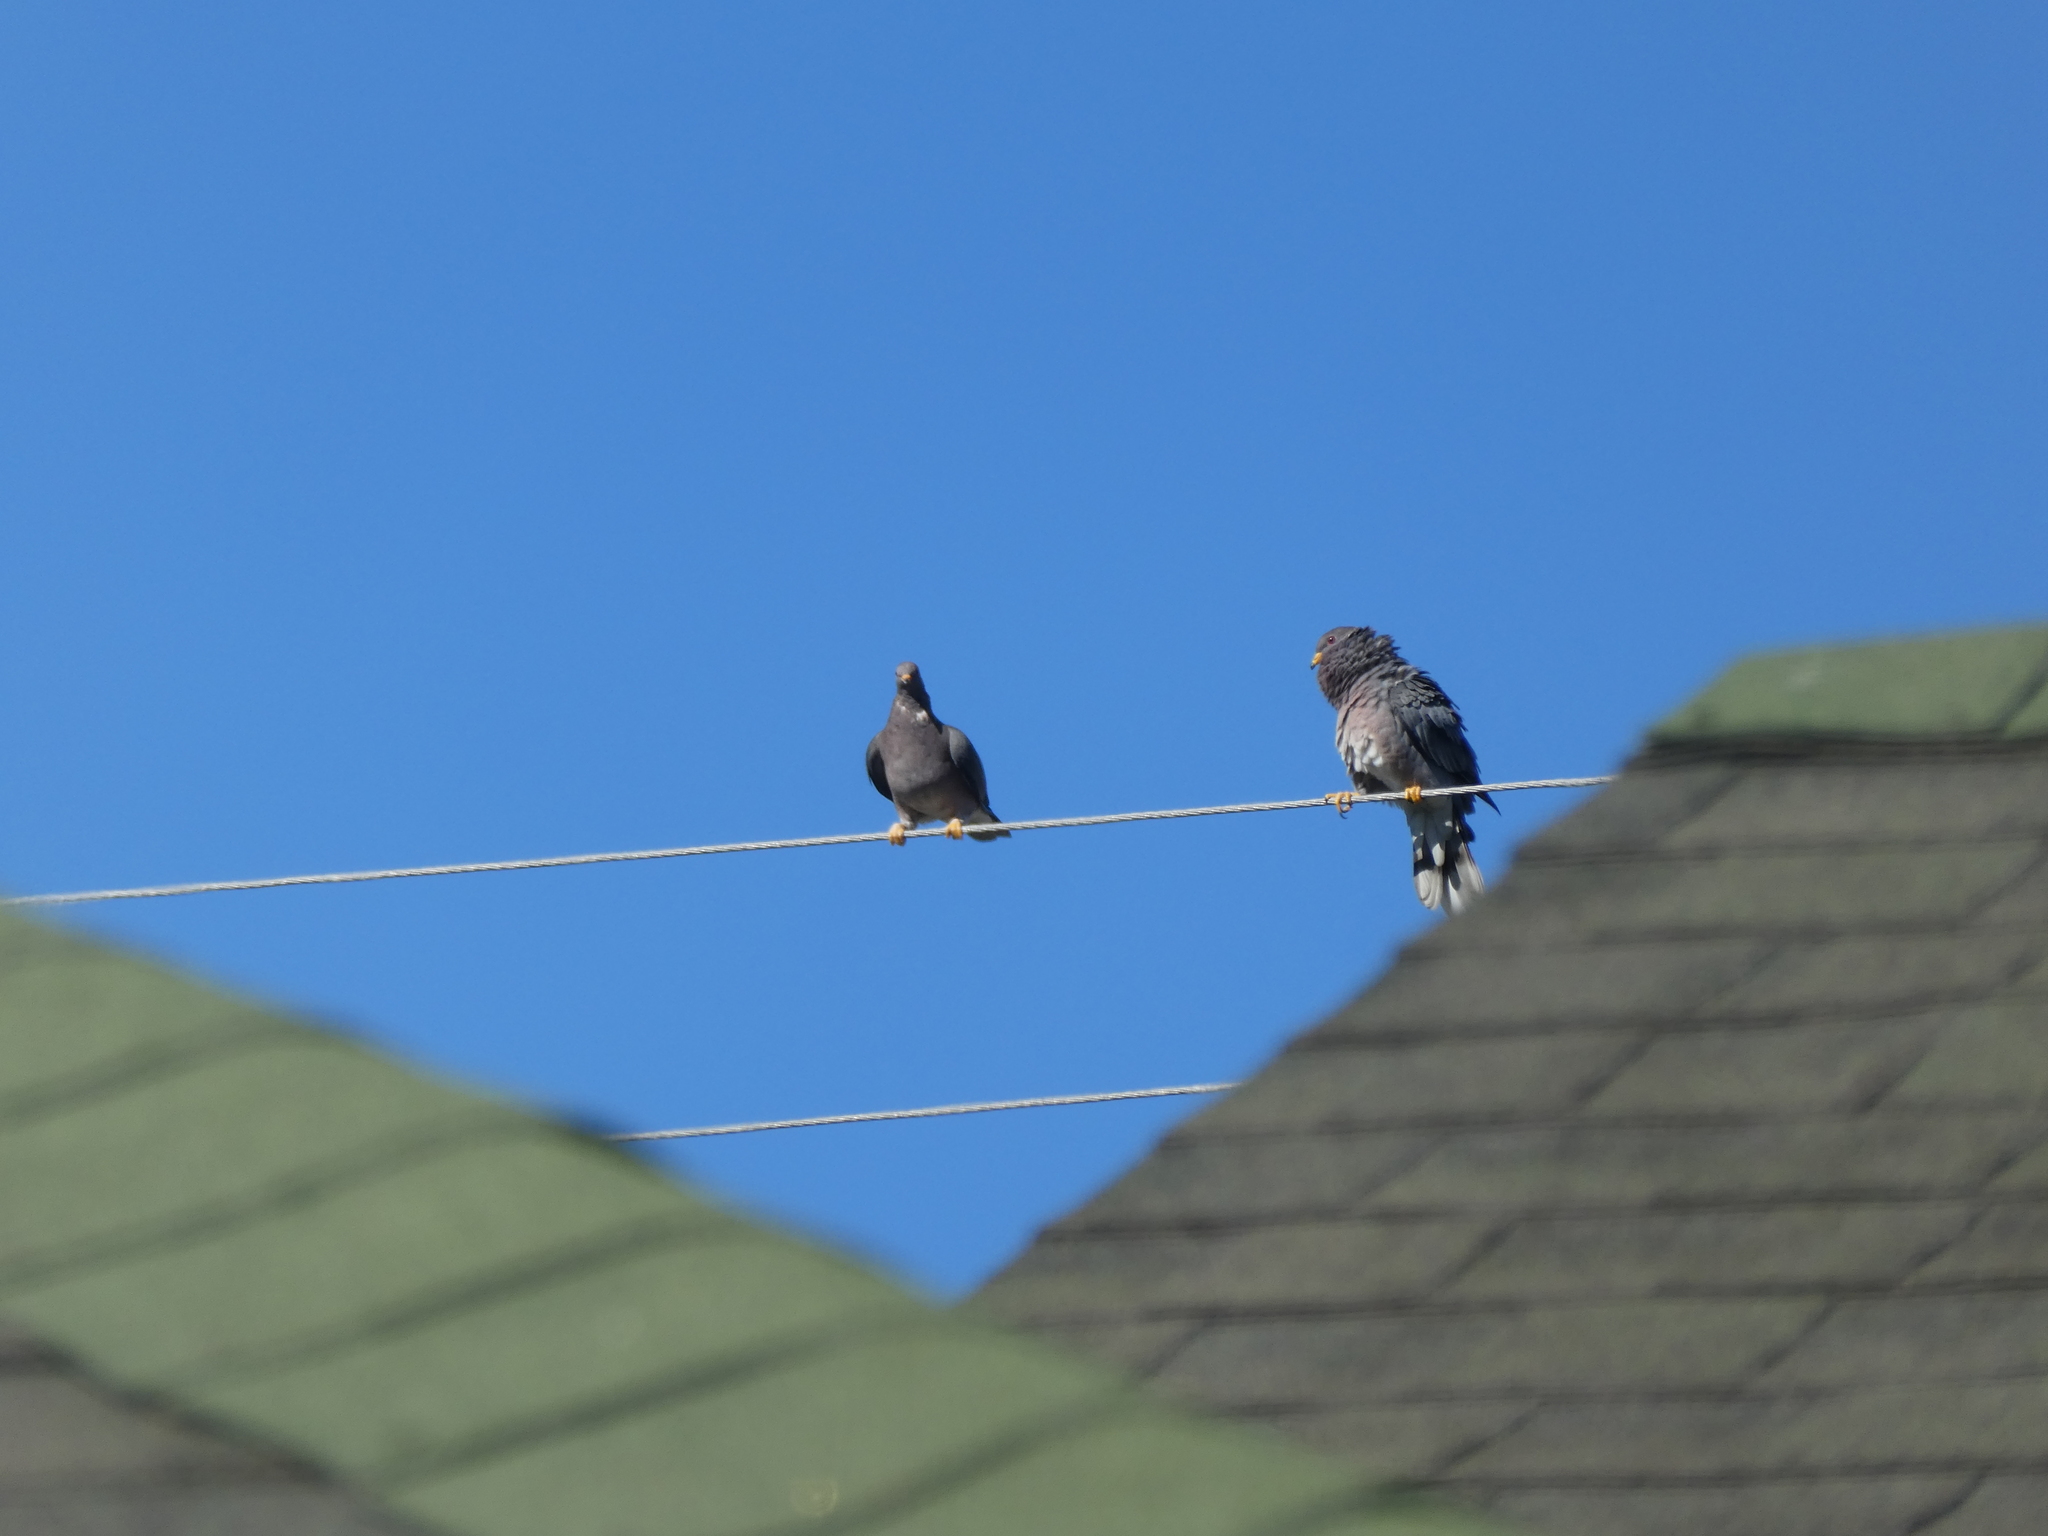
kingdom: Animalia
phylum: Chordata
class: Aves
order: Columbiformes
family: Columbidae
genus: Patagioenas
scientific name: Patagioenas fasciata
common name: Band-tailed pigeon
